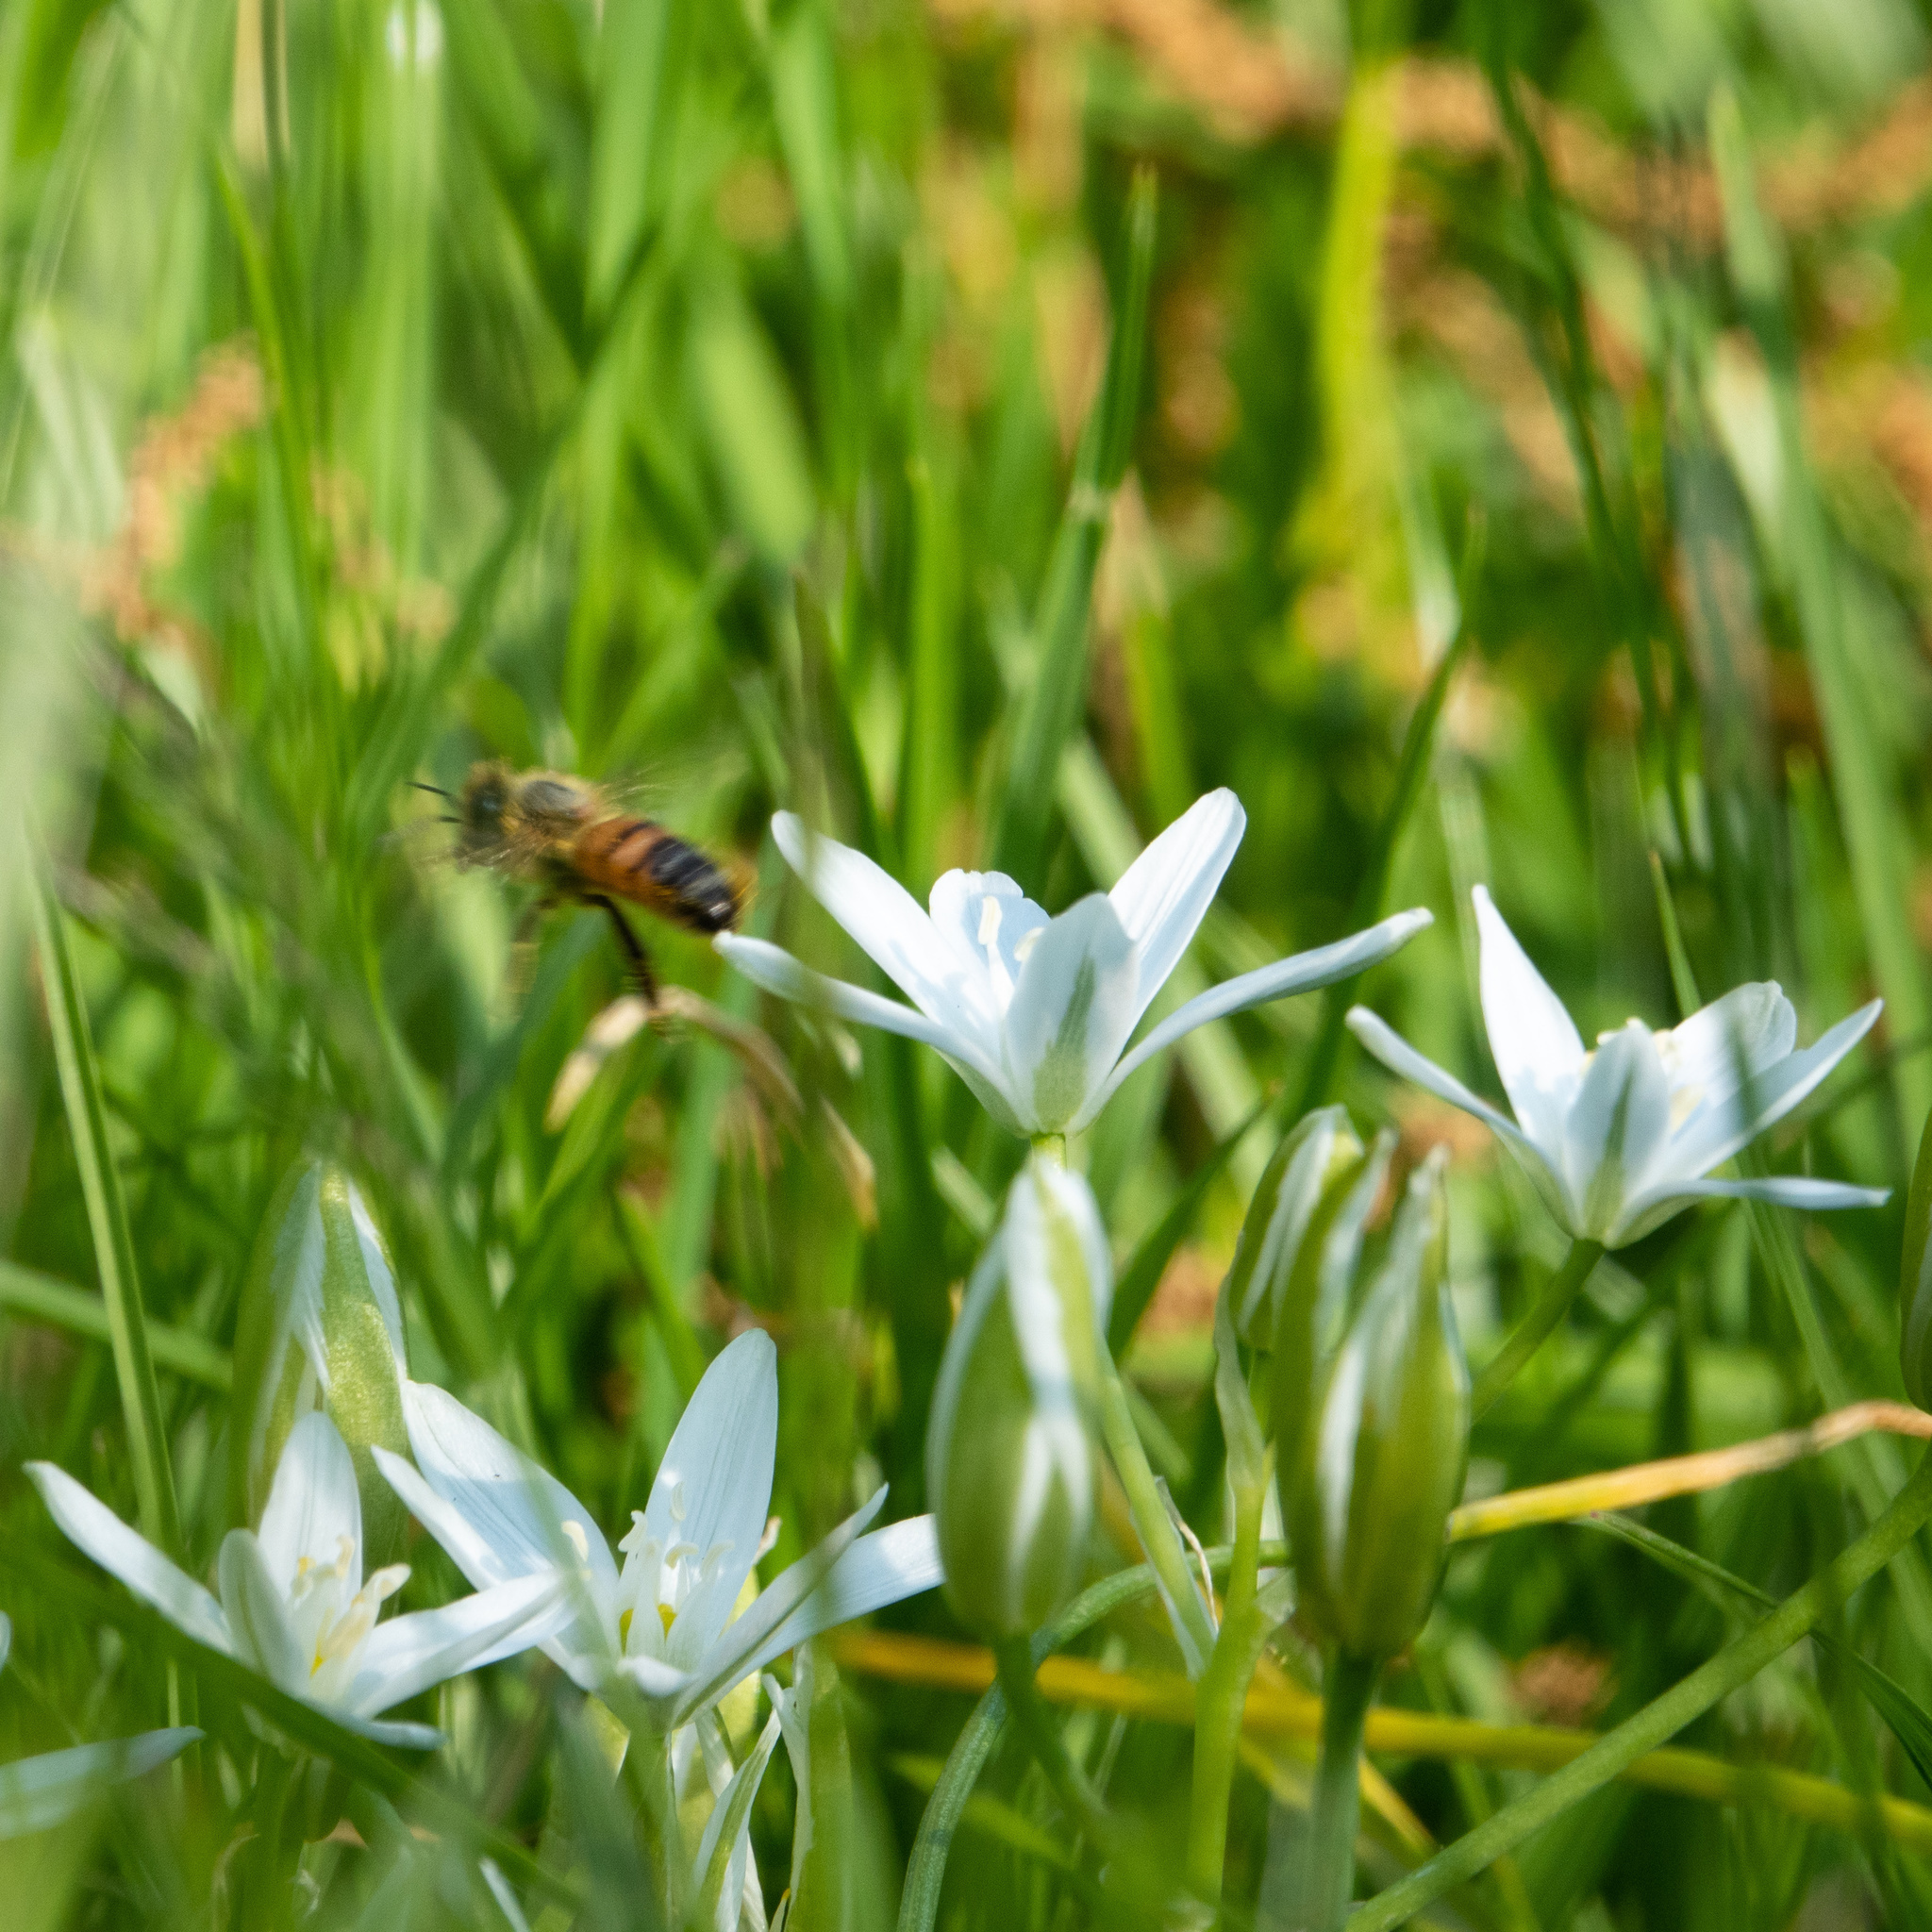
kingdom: Animalia
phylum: Arthropoda
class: Insecta
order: Hymenoptera
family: Apidae
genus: Apis
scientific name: Apis mellifera
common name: Honey bee
